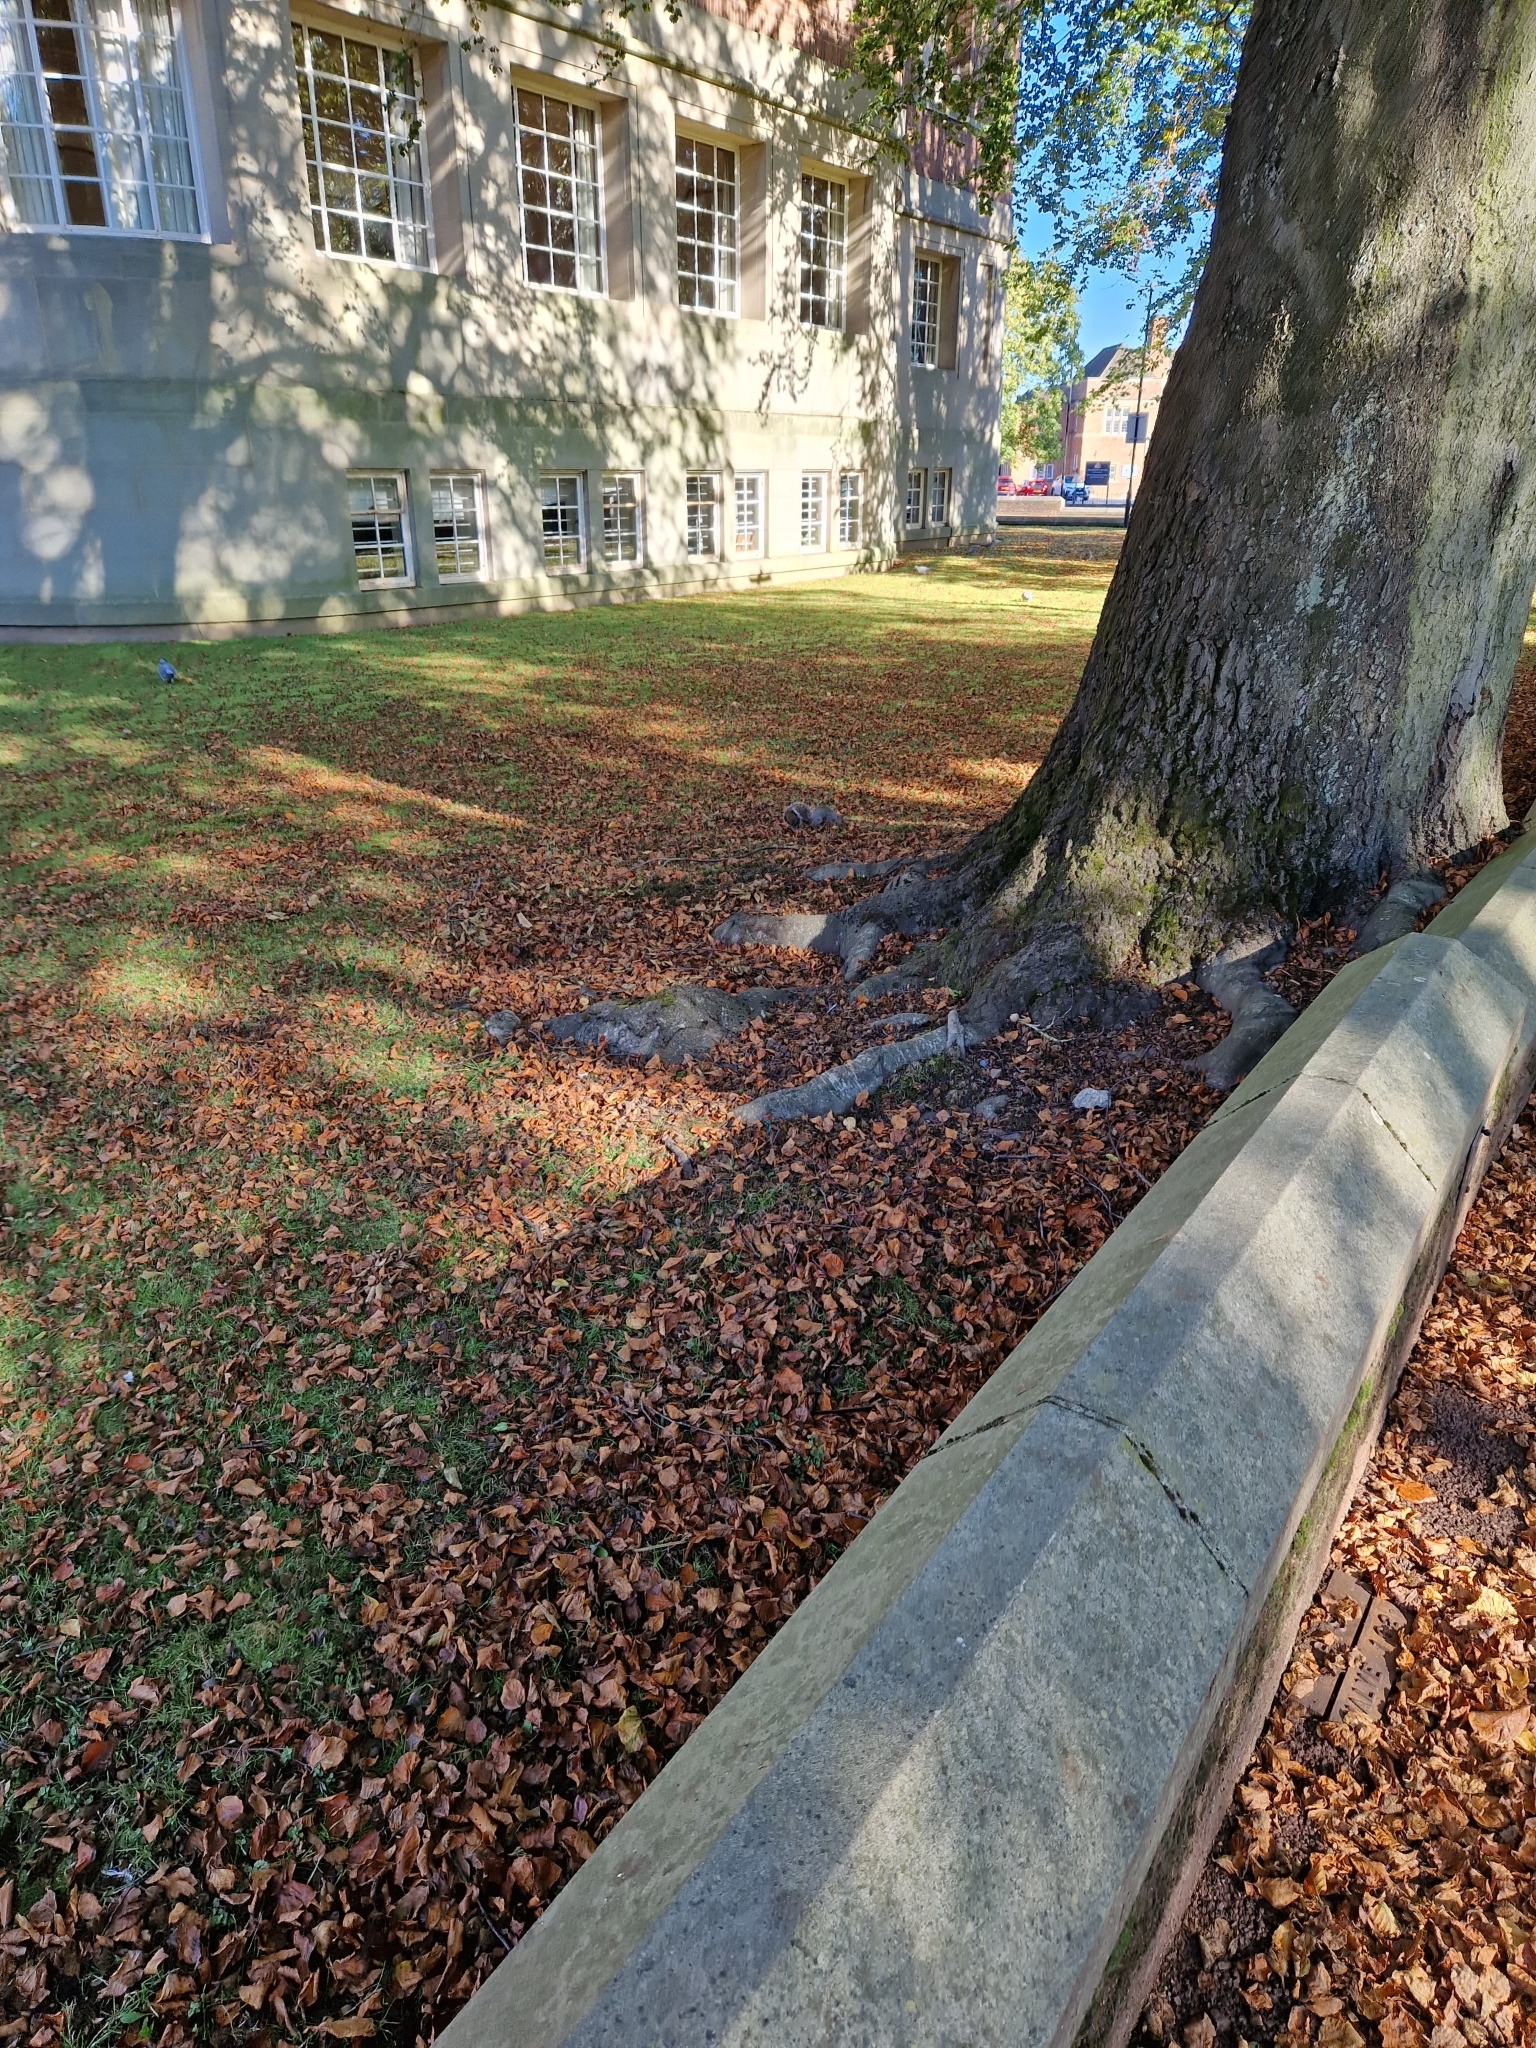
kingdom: Animalia
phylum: Chordata
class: Mammalia
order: Rodentia
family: Sciuridae
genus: Sciurus
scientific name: Sciurus carolinensis
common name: Eastern gray squirrel
